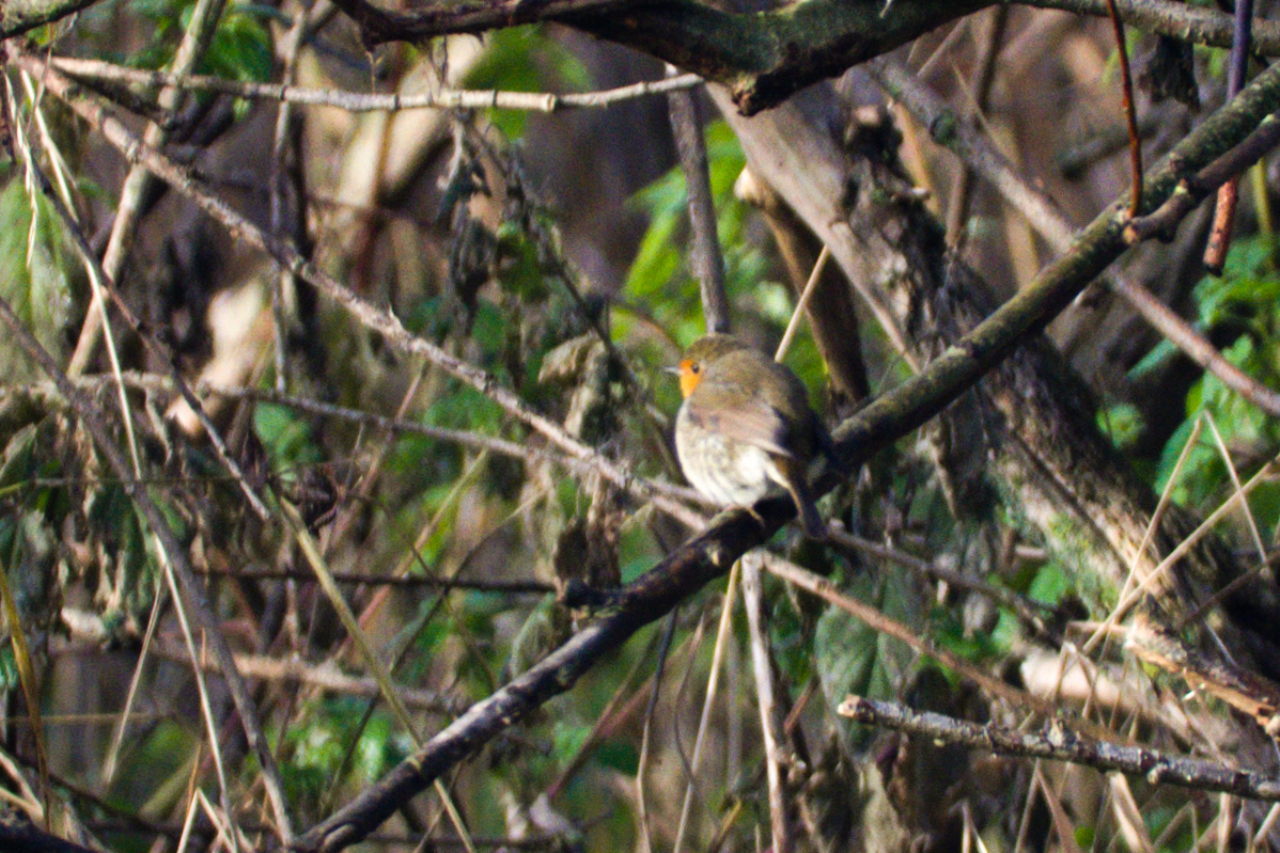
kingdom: Animalia
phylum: Chordata
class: Aves
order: Passeriformes
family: Muscicapidae
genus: Erithacus
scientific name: Erithacus rubecula
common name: European robin
